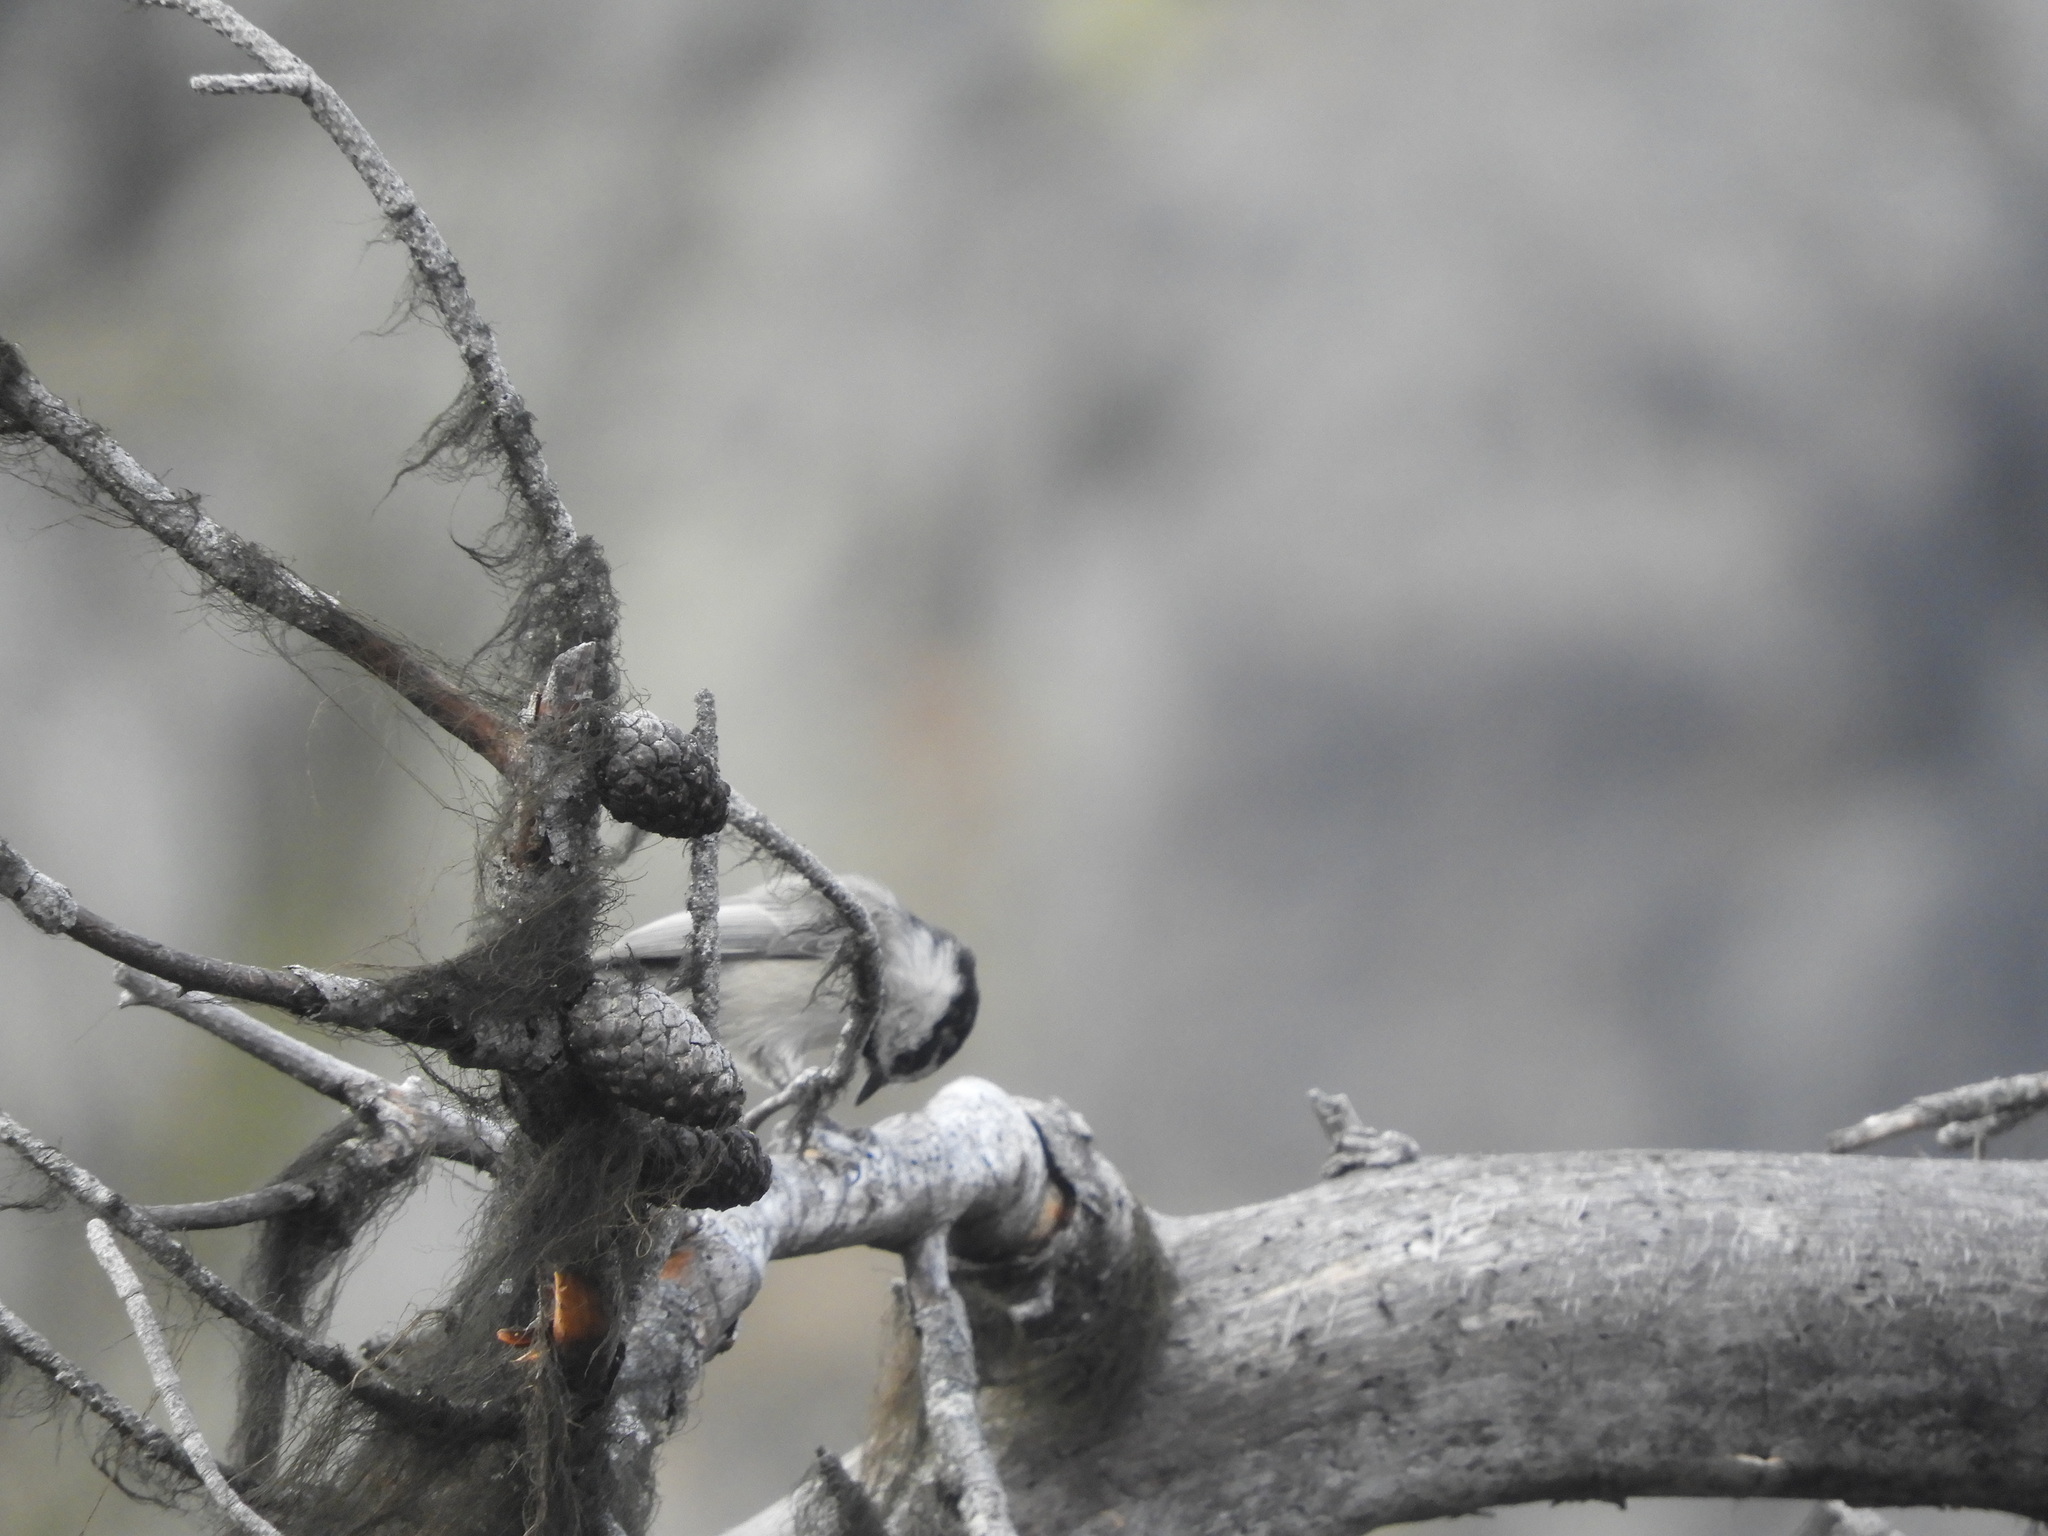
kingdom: Animalia
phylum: Chordata
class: Aves
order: Passeriformes
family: Paridae
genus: Poecile
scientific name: Poecile gambeli
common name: Mountain chickadee
